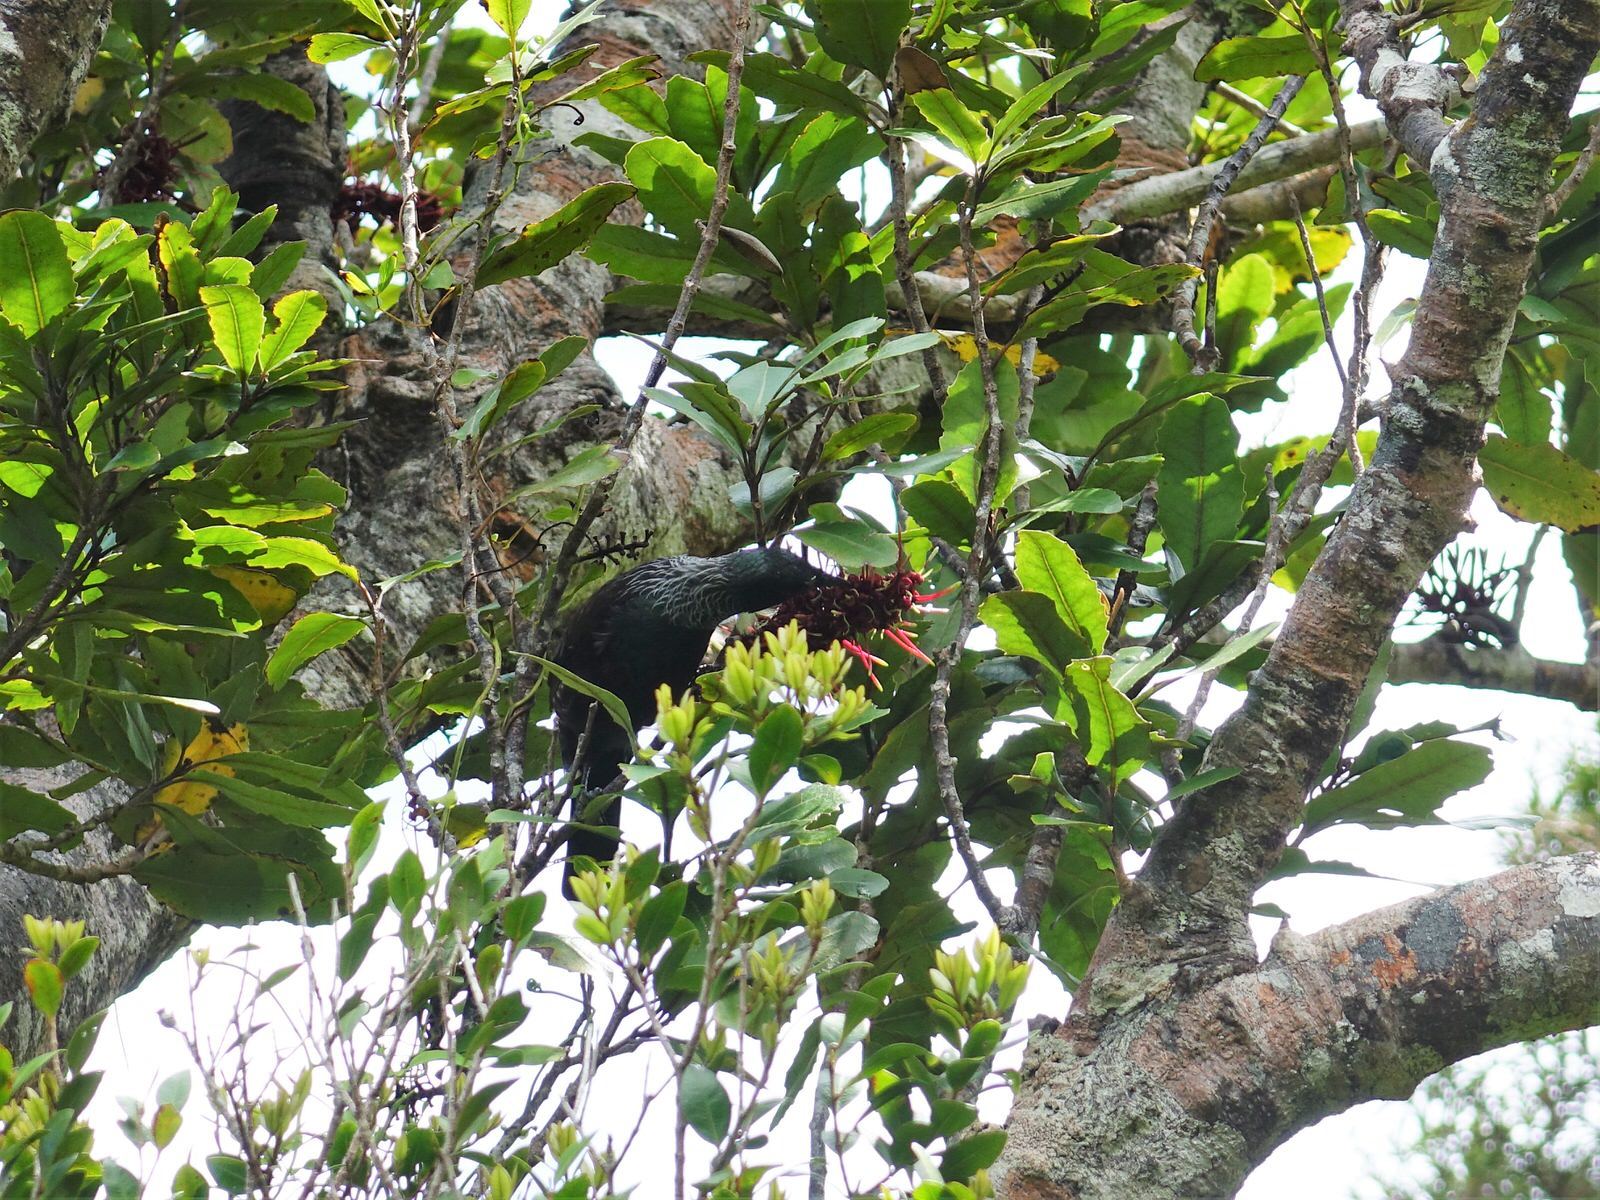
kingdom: Animalia
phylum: Chordata
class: Aves
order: Passeriformes
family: Meliphagidae
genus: Prosthemadera
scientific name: Prosthemadera novaeseelandiae
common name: Tui
